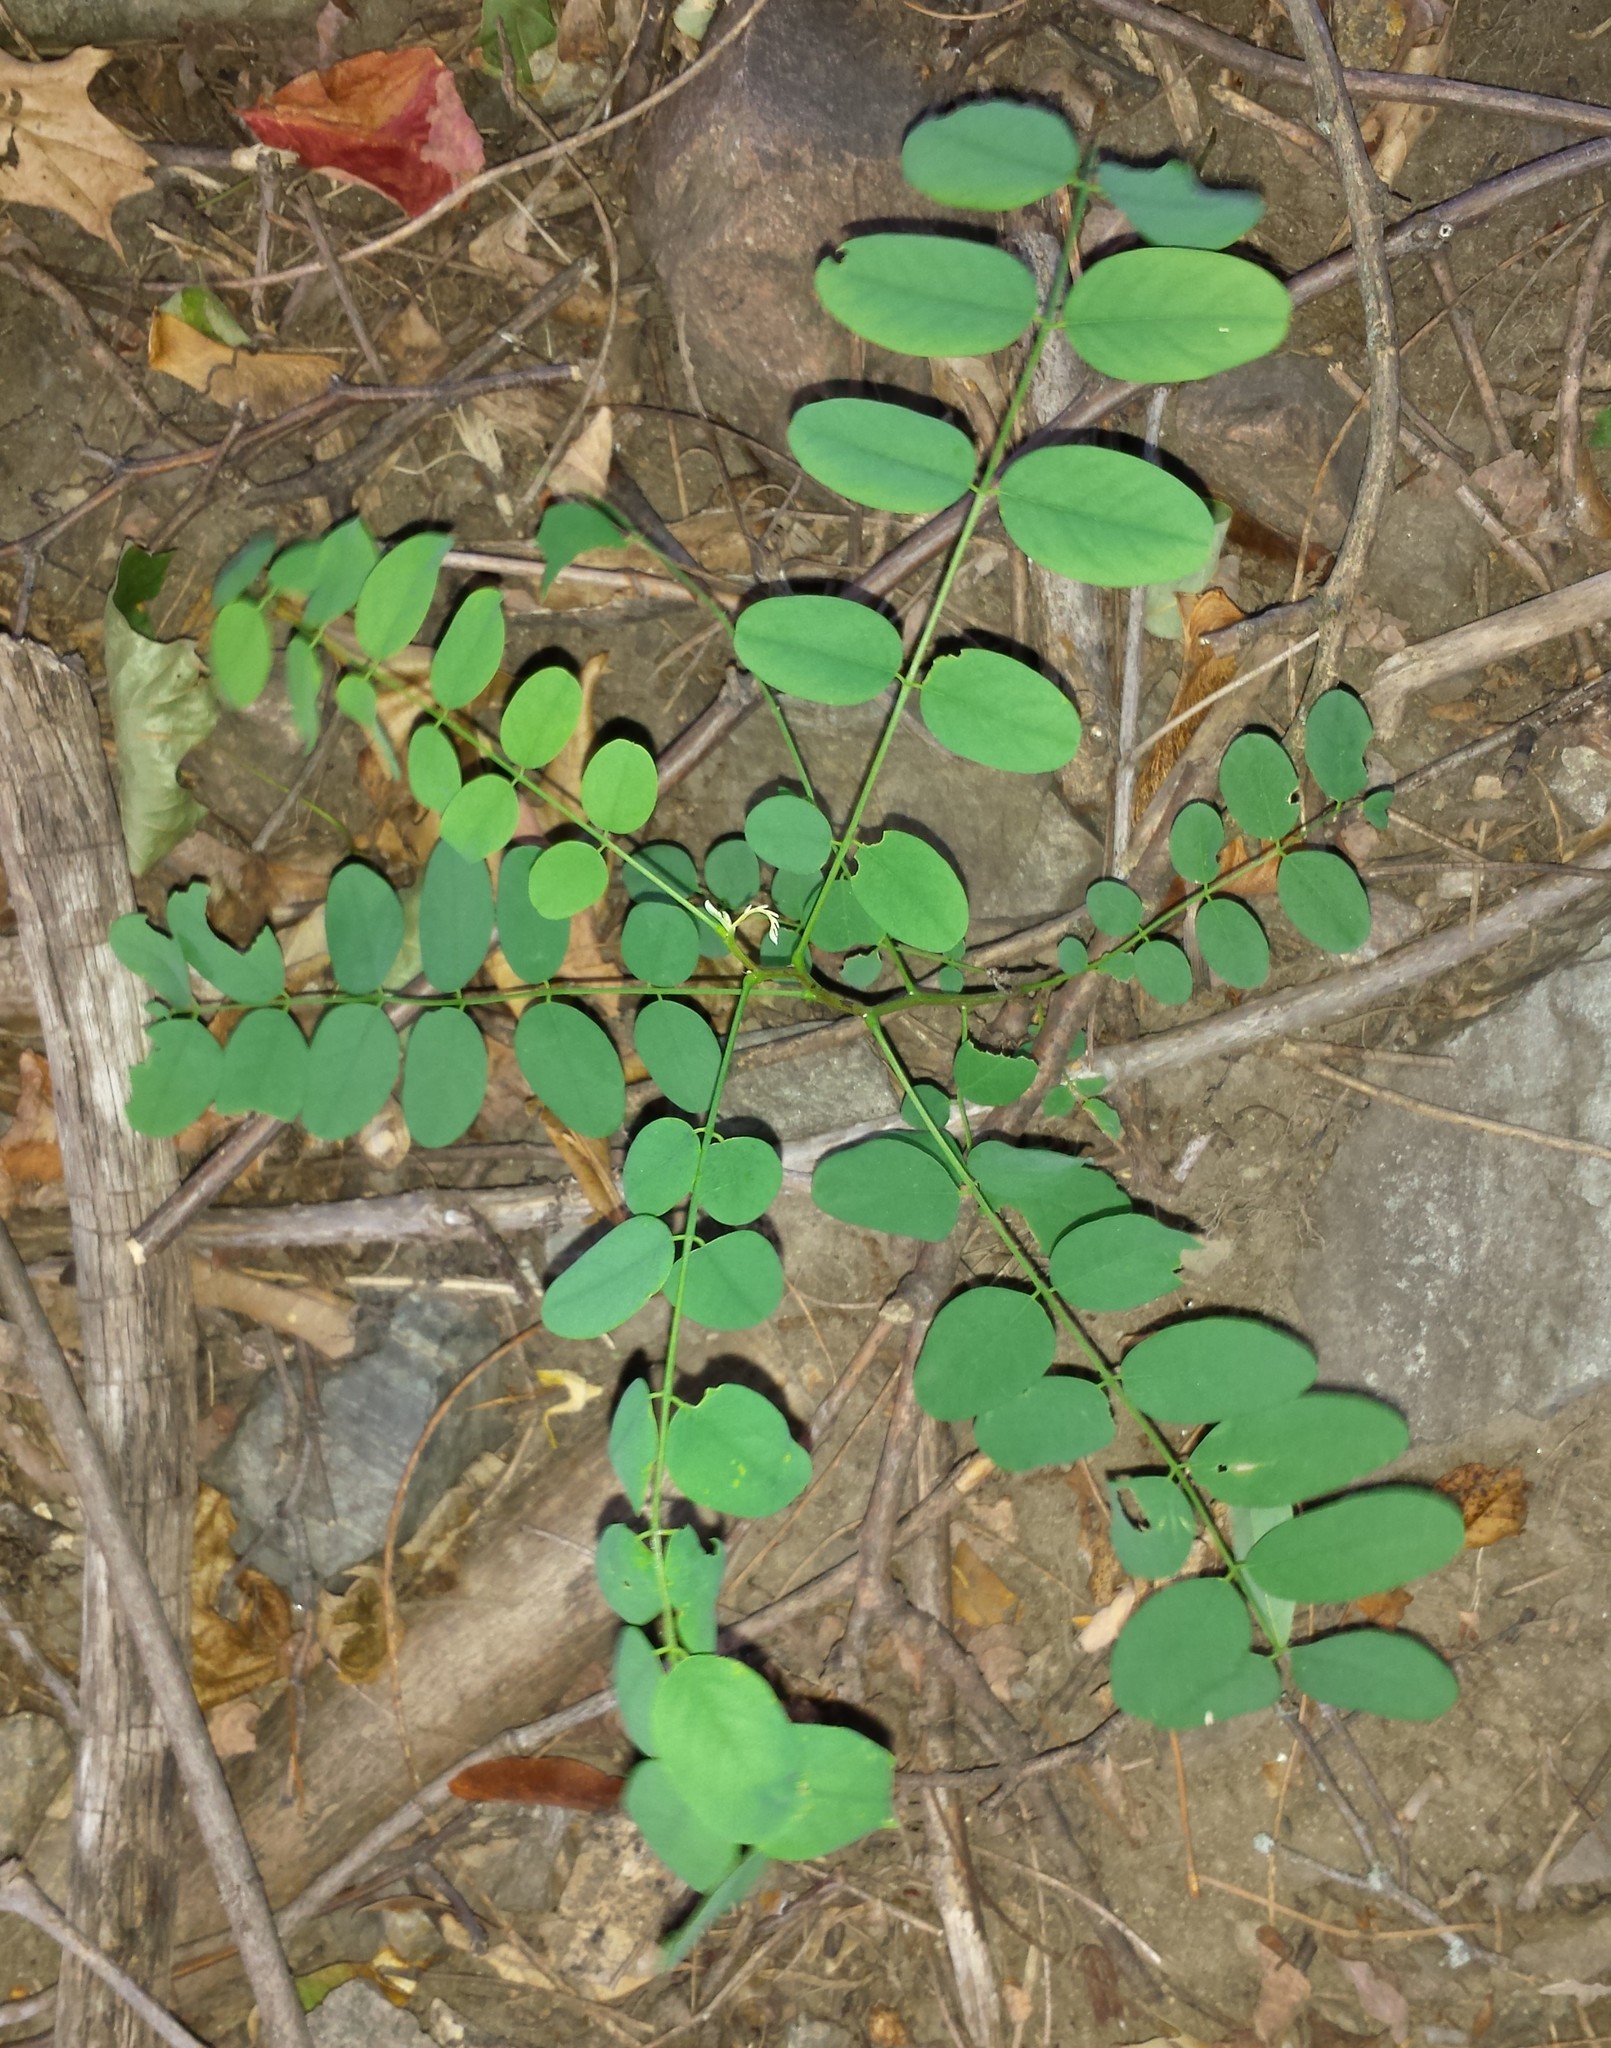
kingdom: Plantae
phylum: Tracheophyta
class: Magnoliopsida
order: Fabales
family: Fabaceae
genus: Robinia
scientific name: Robinia pseudoacacia
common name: Black locust
